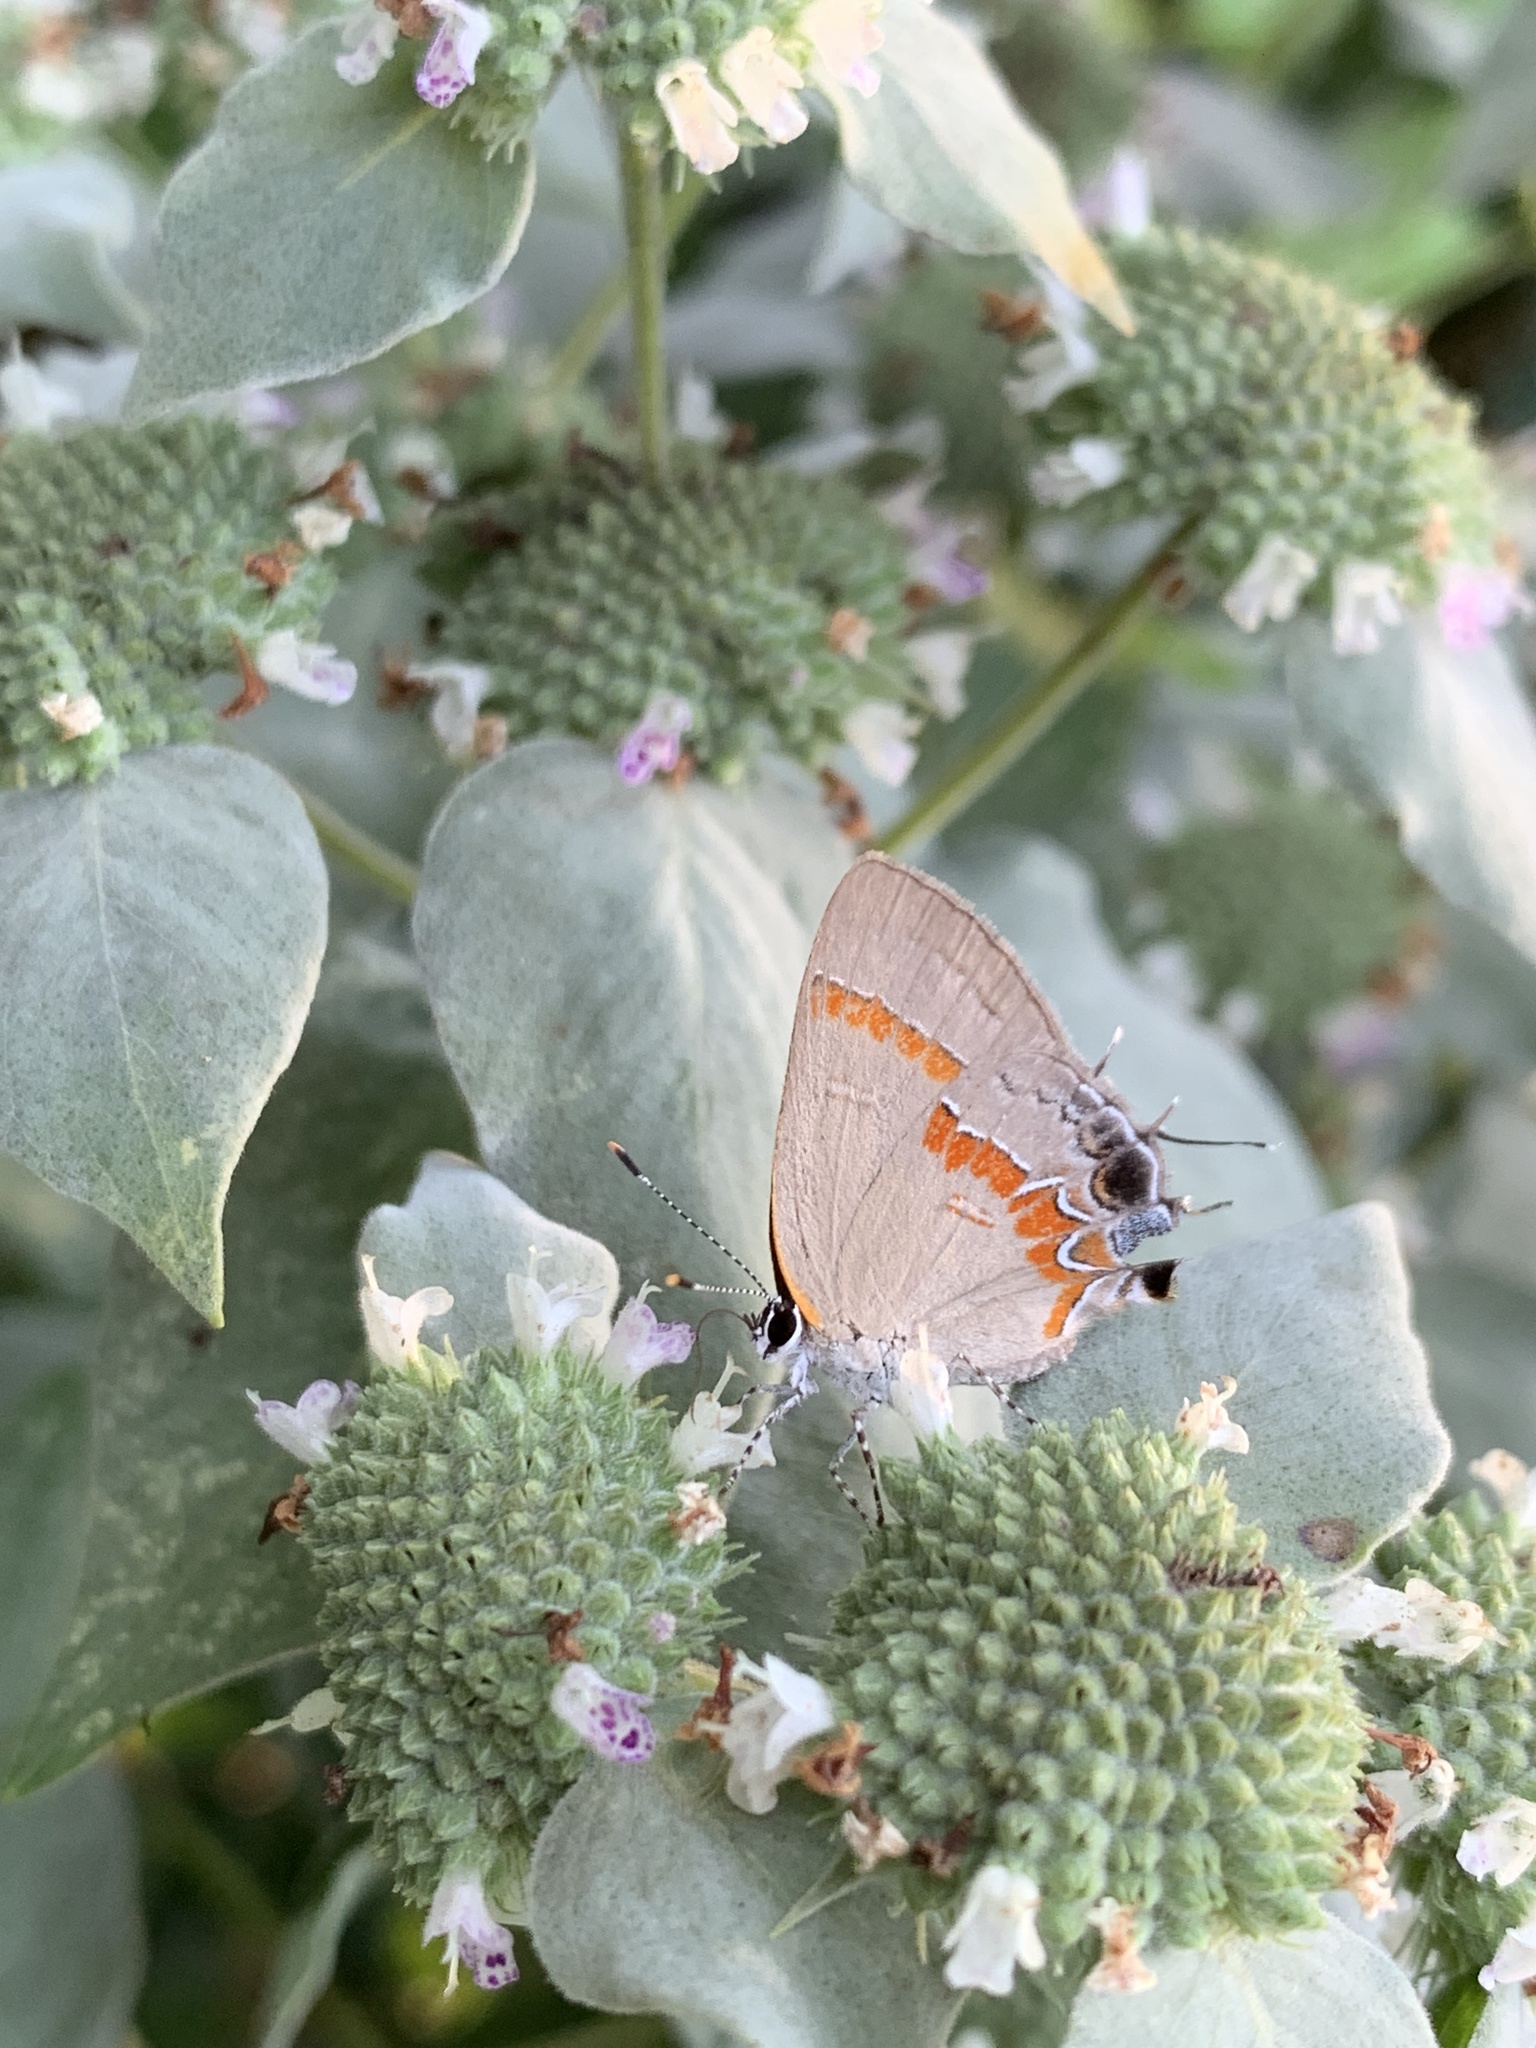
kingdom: Animalia
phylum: Arthropoda
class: Insecta
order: Lepidoptera
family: Lycaenidae
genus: Calycopis
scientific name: Calycopis cecrops
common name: Red-banded hairstreak
